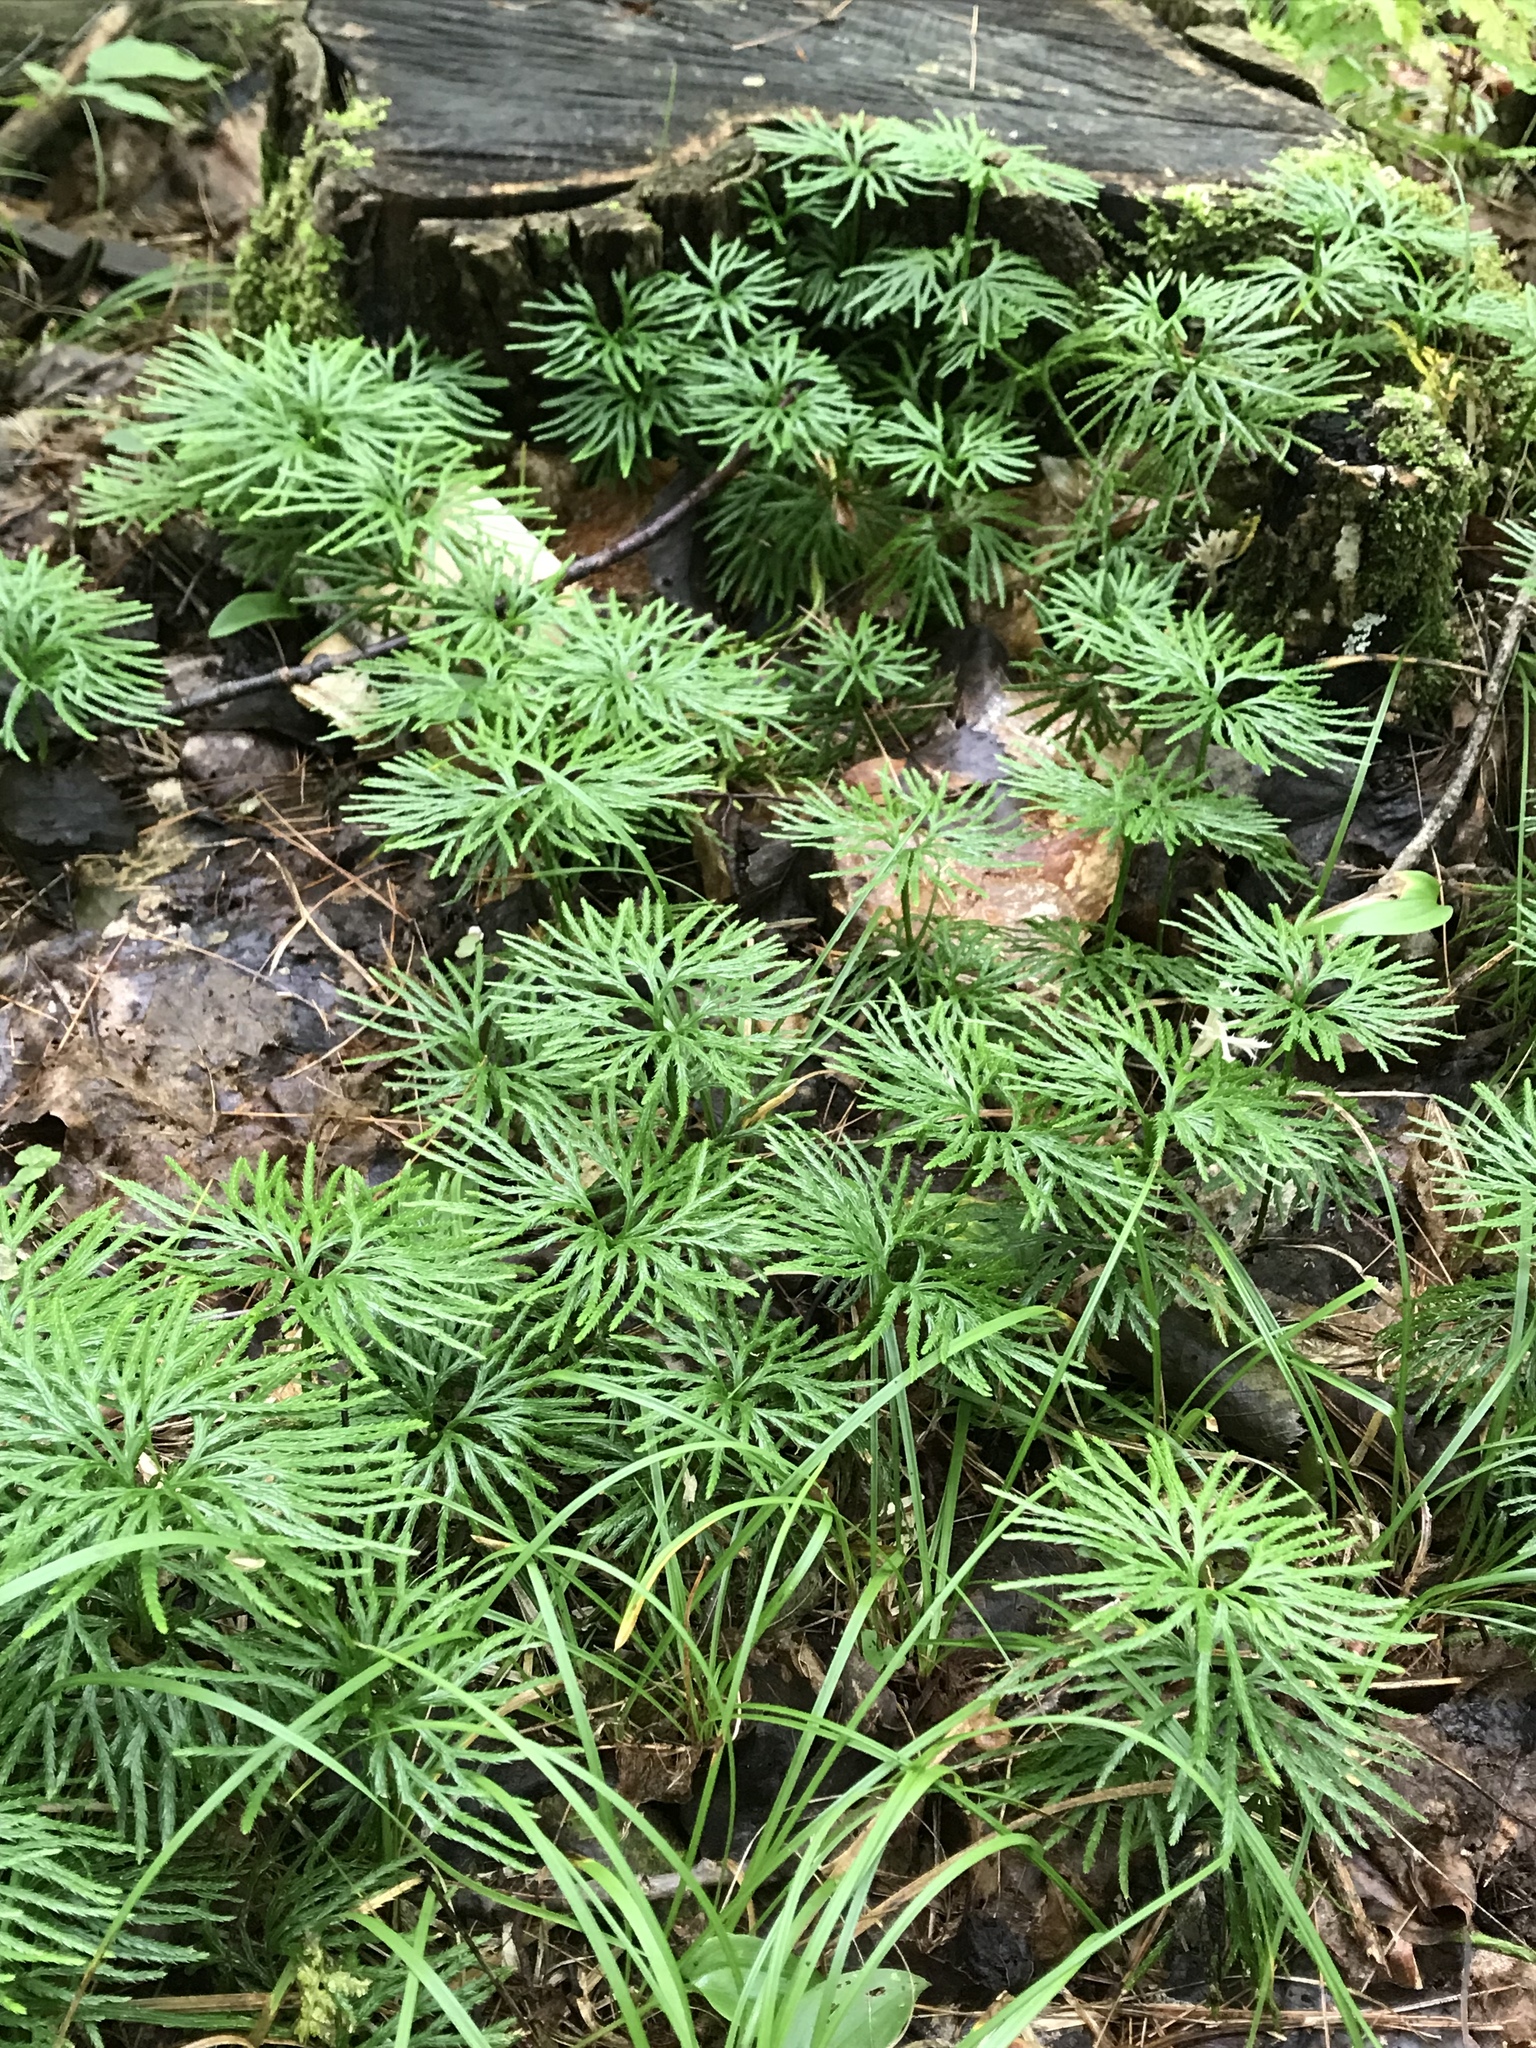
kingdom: Plantae
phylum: Tracheophyta
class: Lycopodiopsida
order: Lycopodiales
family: Lycopodiaceae
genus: Diphasiastrum
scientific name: Diphasiastrum digitatum
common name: Southern running-pine
